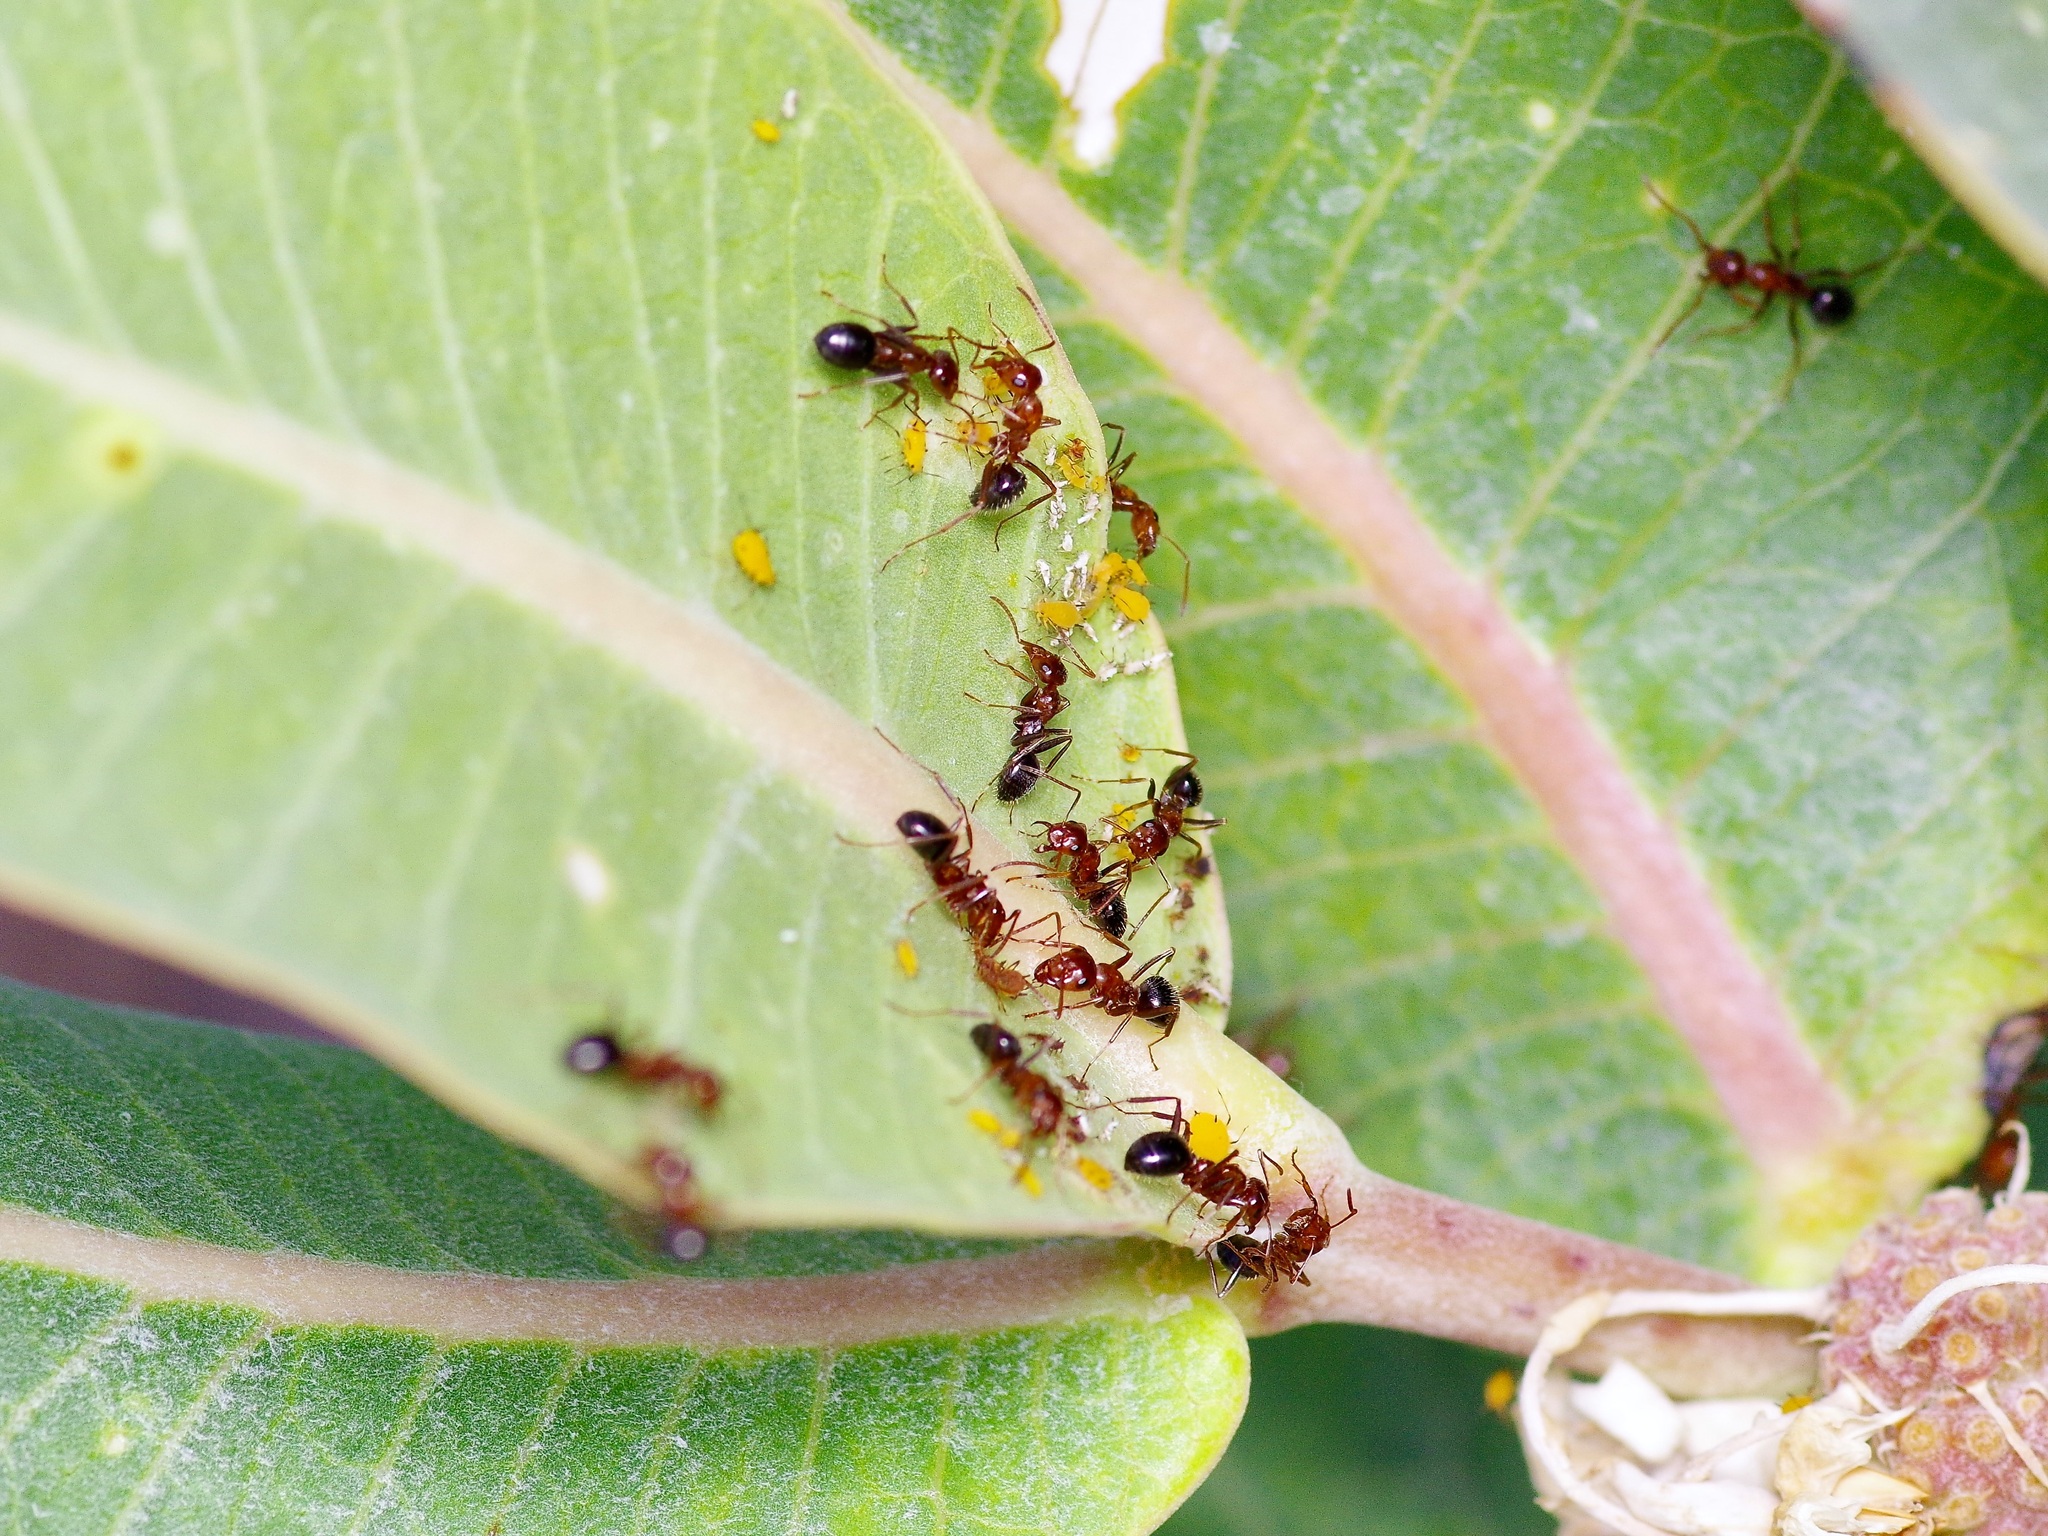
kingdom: Animalia
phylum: Arthropoda
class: Insecta
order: Hymenoptera
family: Formicidae
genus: Formica
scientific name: Formica perpilosa
